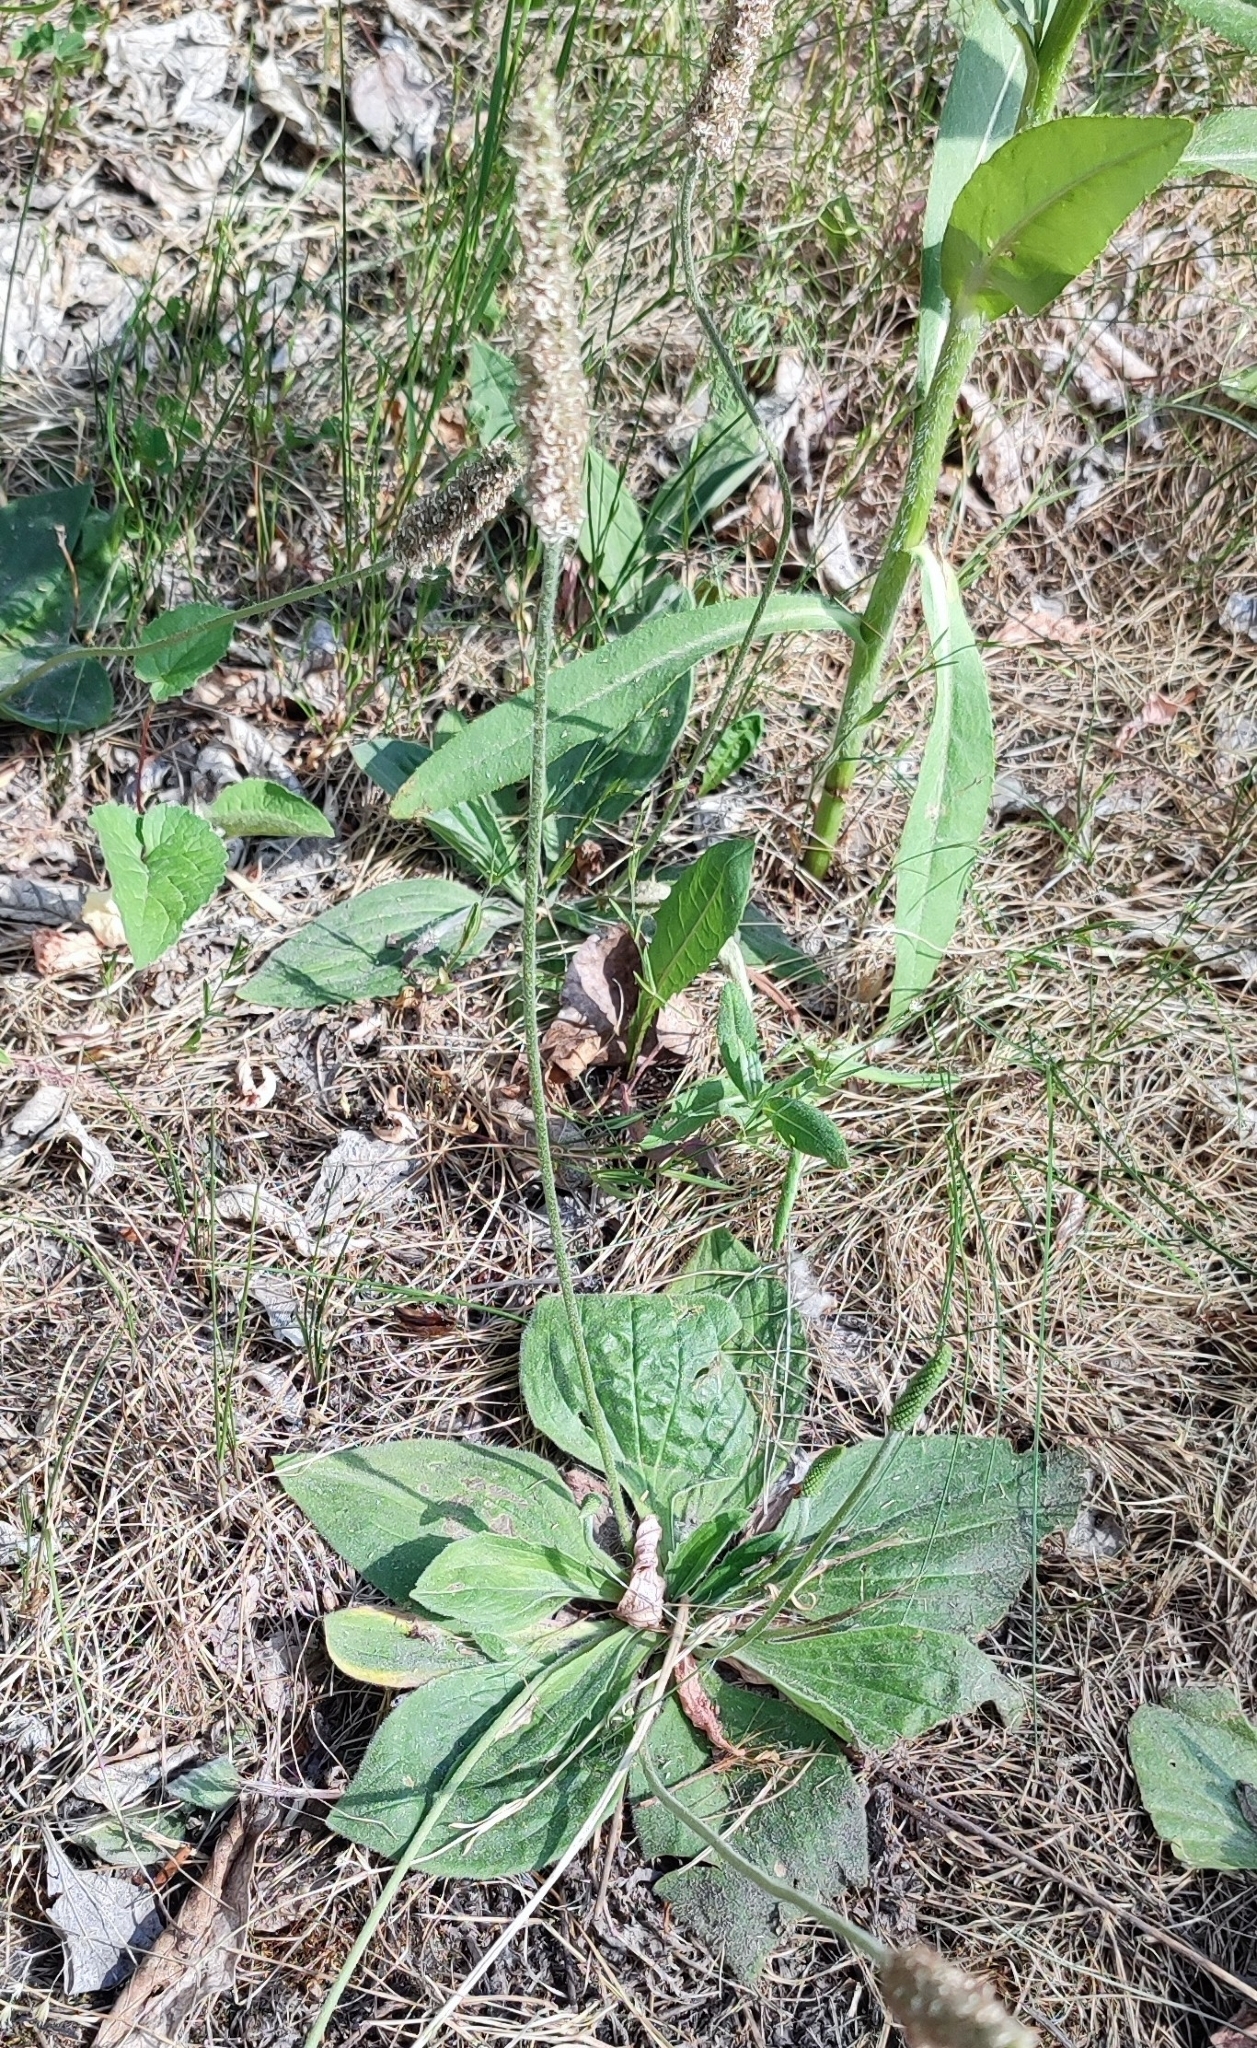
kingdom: Plantae
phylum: Tracheophyta
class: Magnoliopsida
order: Lamiales
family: Plantaginaceae
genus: Plantago
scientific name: Plantago media
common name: Hoary plantain
